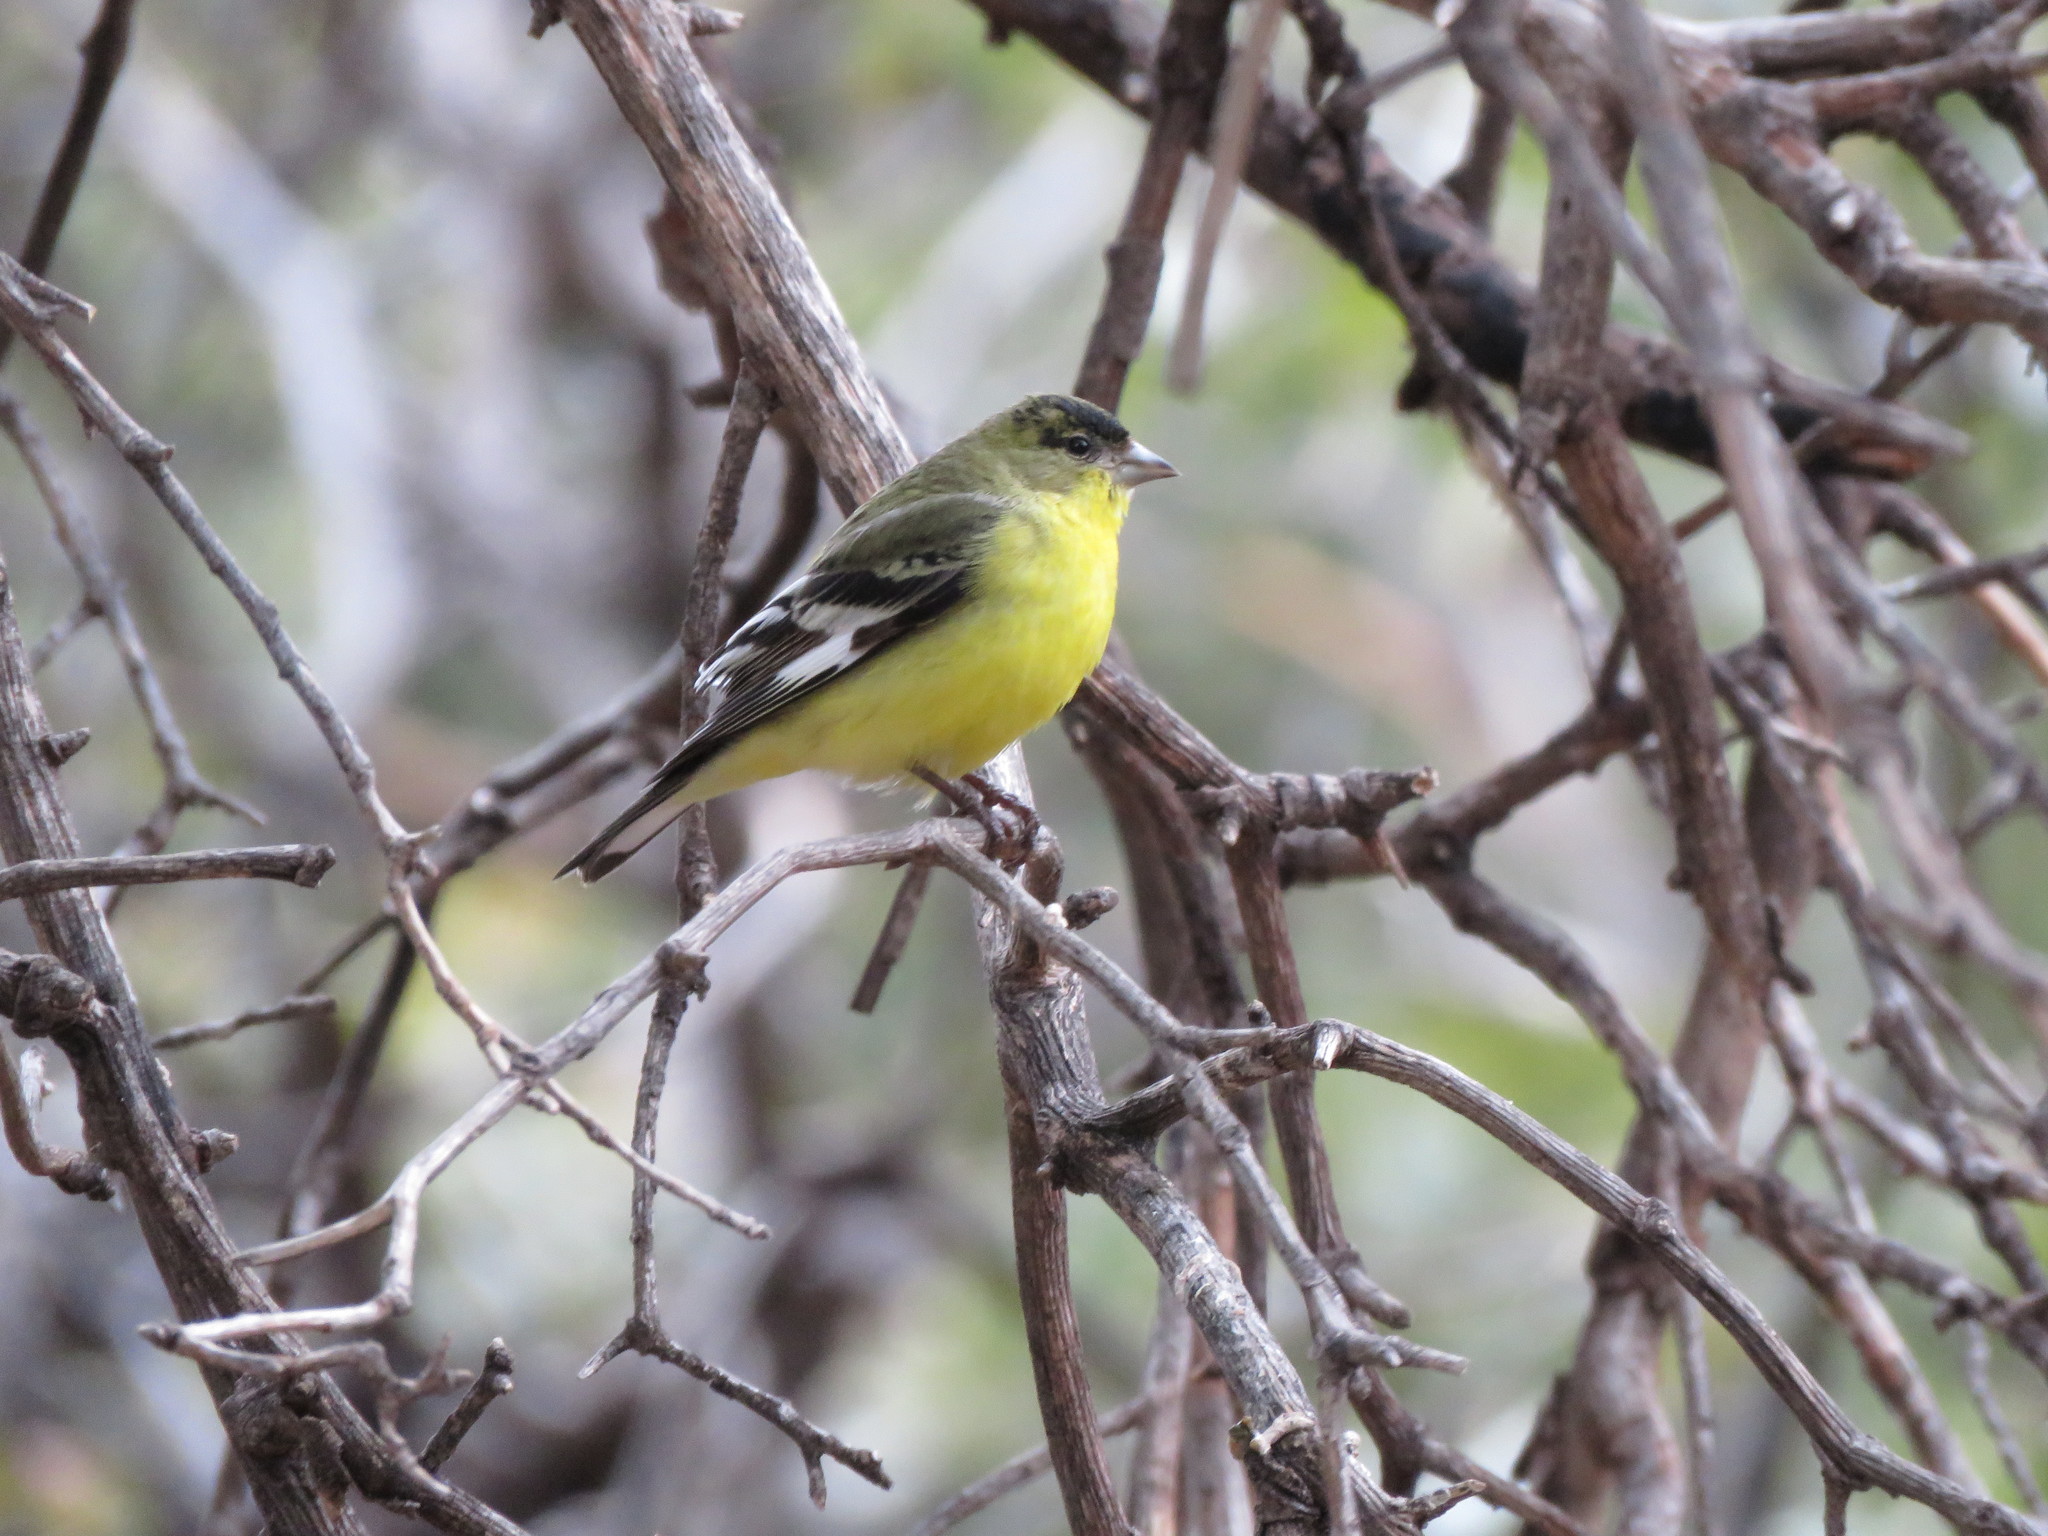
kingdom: Animalia
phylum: Chordata
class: Aves
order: Passeriformes
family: Fringillidae
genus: Spinus
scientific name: Spinus psaltria
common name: Lesser goldfinch
